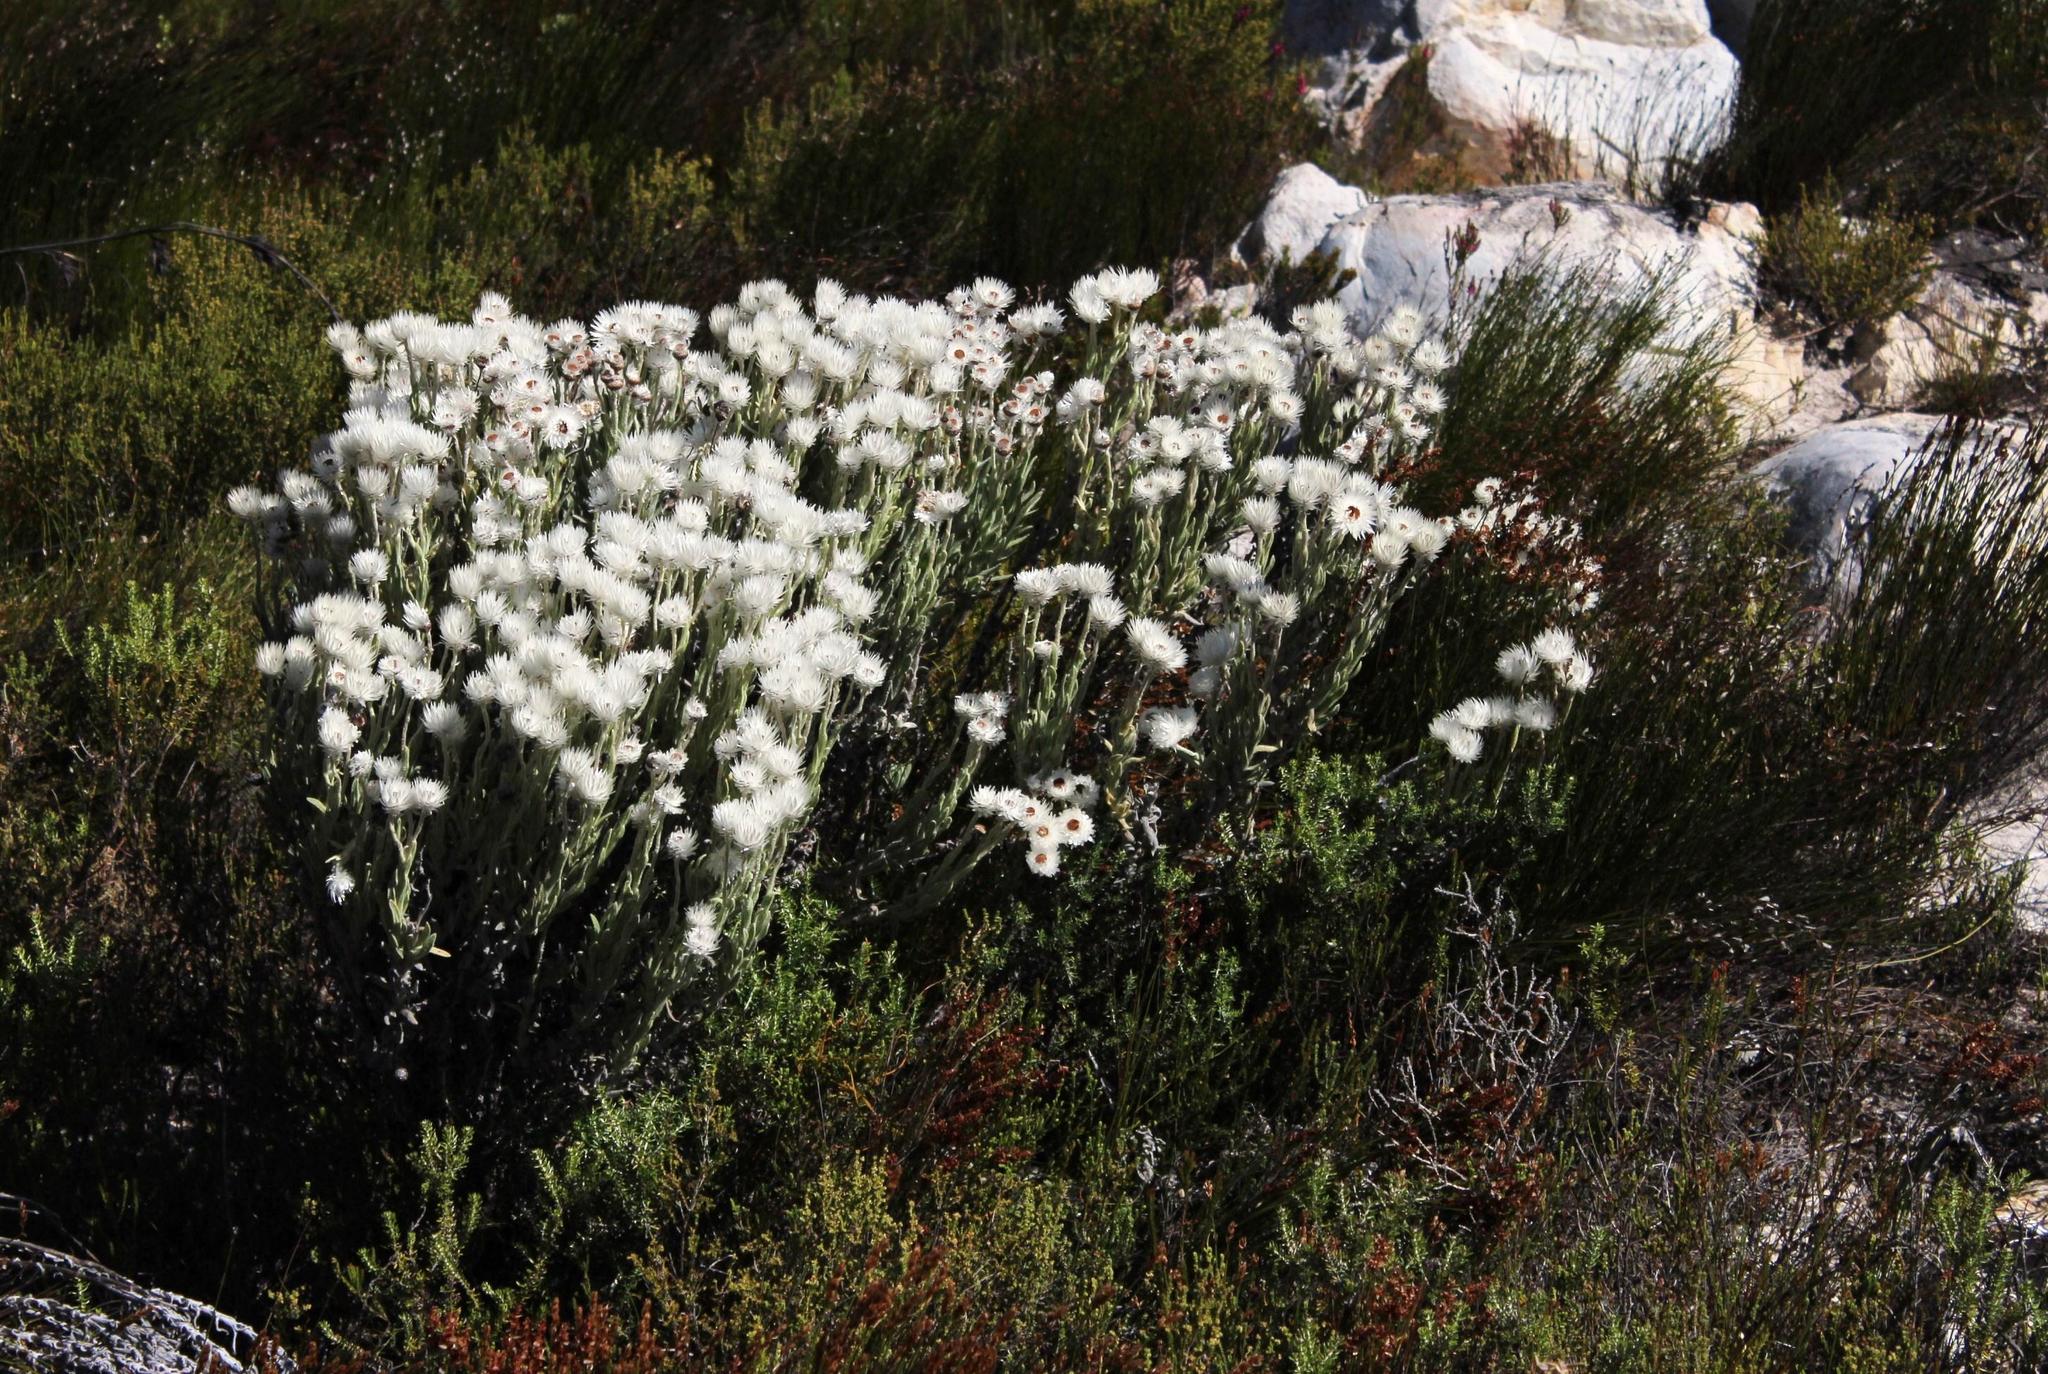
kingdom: Plantae
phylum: Tracheophyta
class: Magnoliopsida
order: Asterales
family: Asteraceae
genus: Syncarpha
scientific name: Syncarpha vestita
